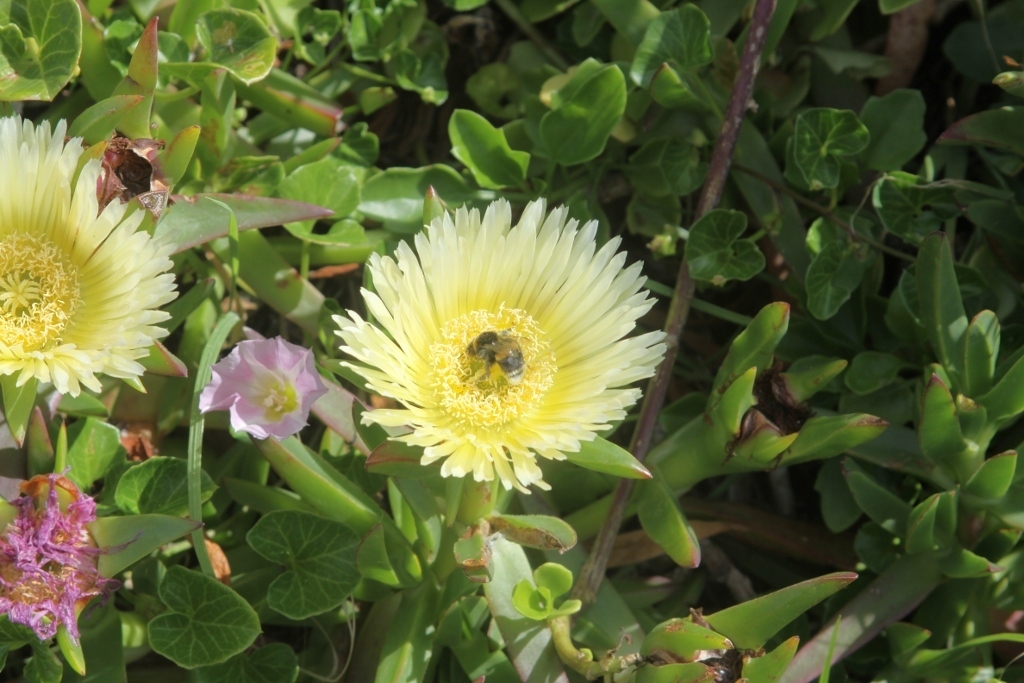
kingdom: Plantae
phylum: Tracheophyta
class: Magnoliopsida
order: Caryophyllales
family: Aizoaceae
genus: Disphyma
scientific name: Disphyma australe
